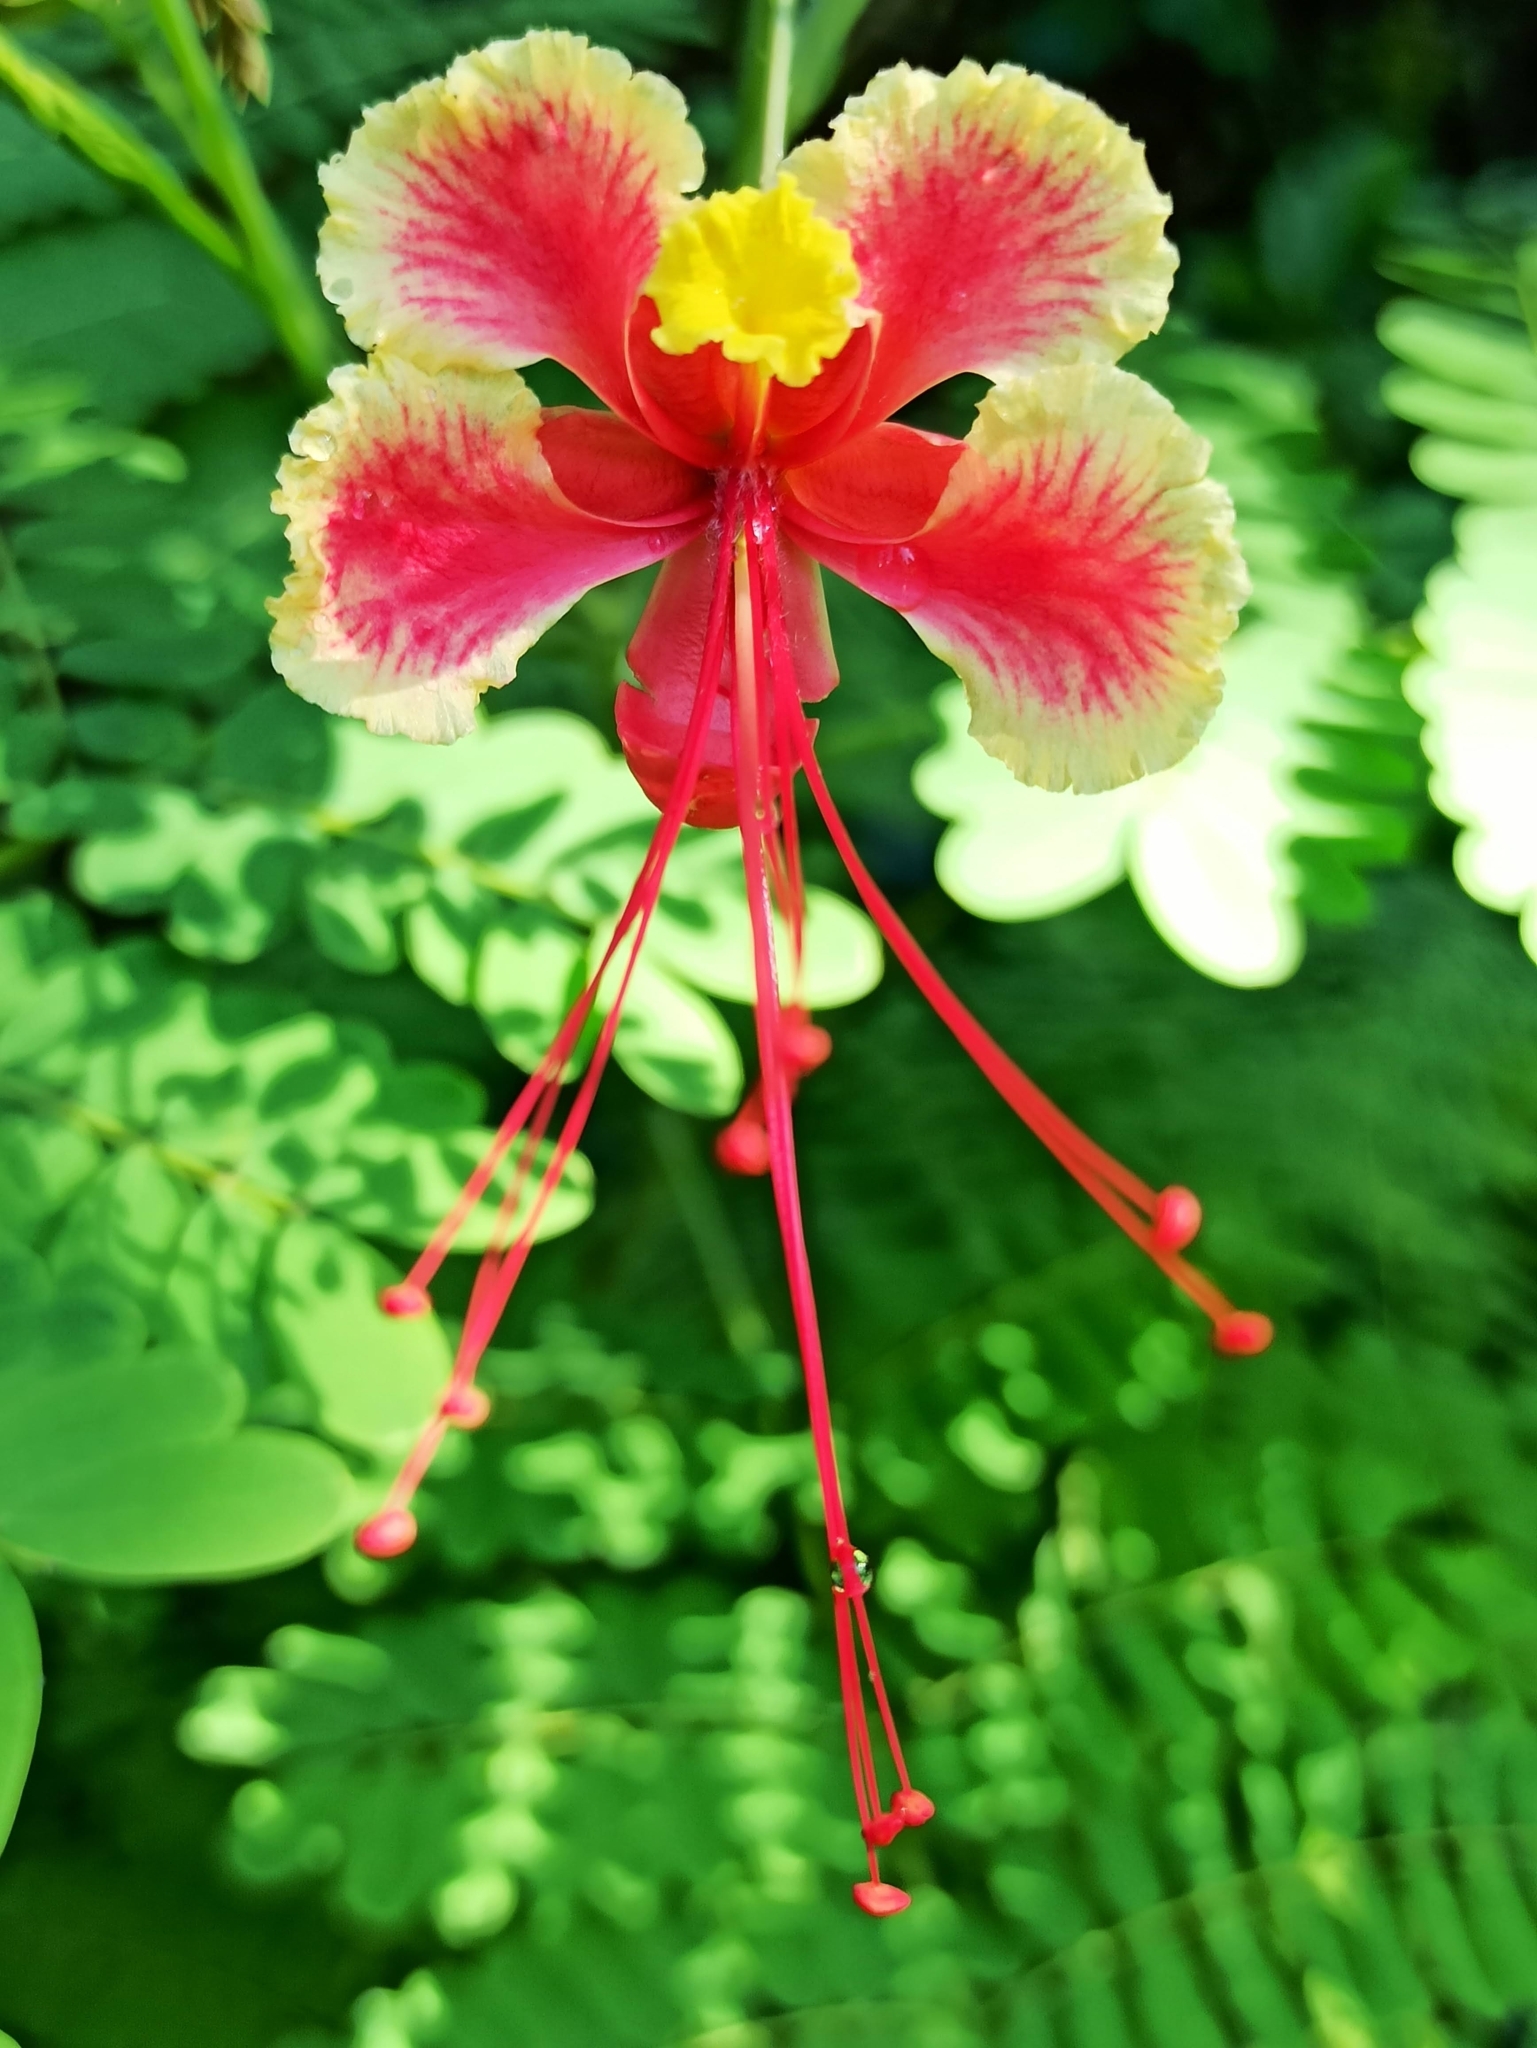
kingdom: Plantae
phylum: Tracheophyta
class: Magnoliopsida
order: Fabales
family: Fabaceae
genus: Caesalpinia
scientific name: Caesalpinia pulcherrima
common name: Pride-of-barbados
